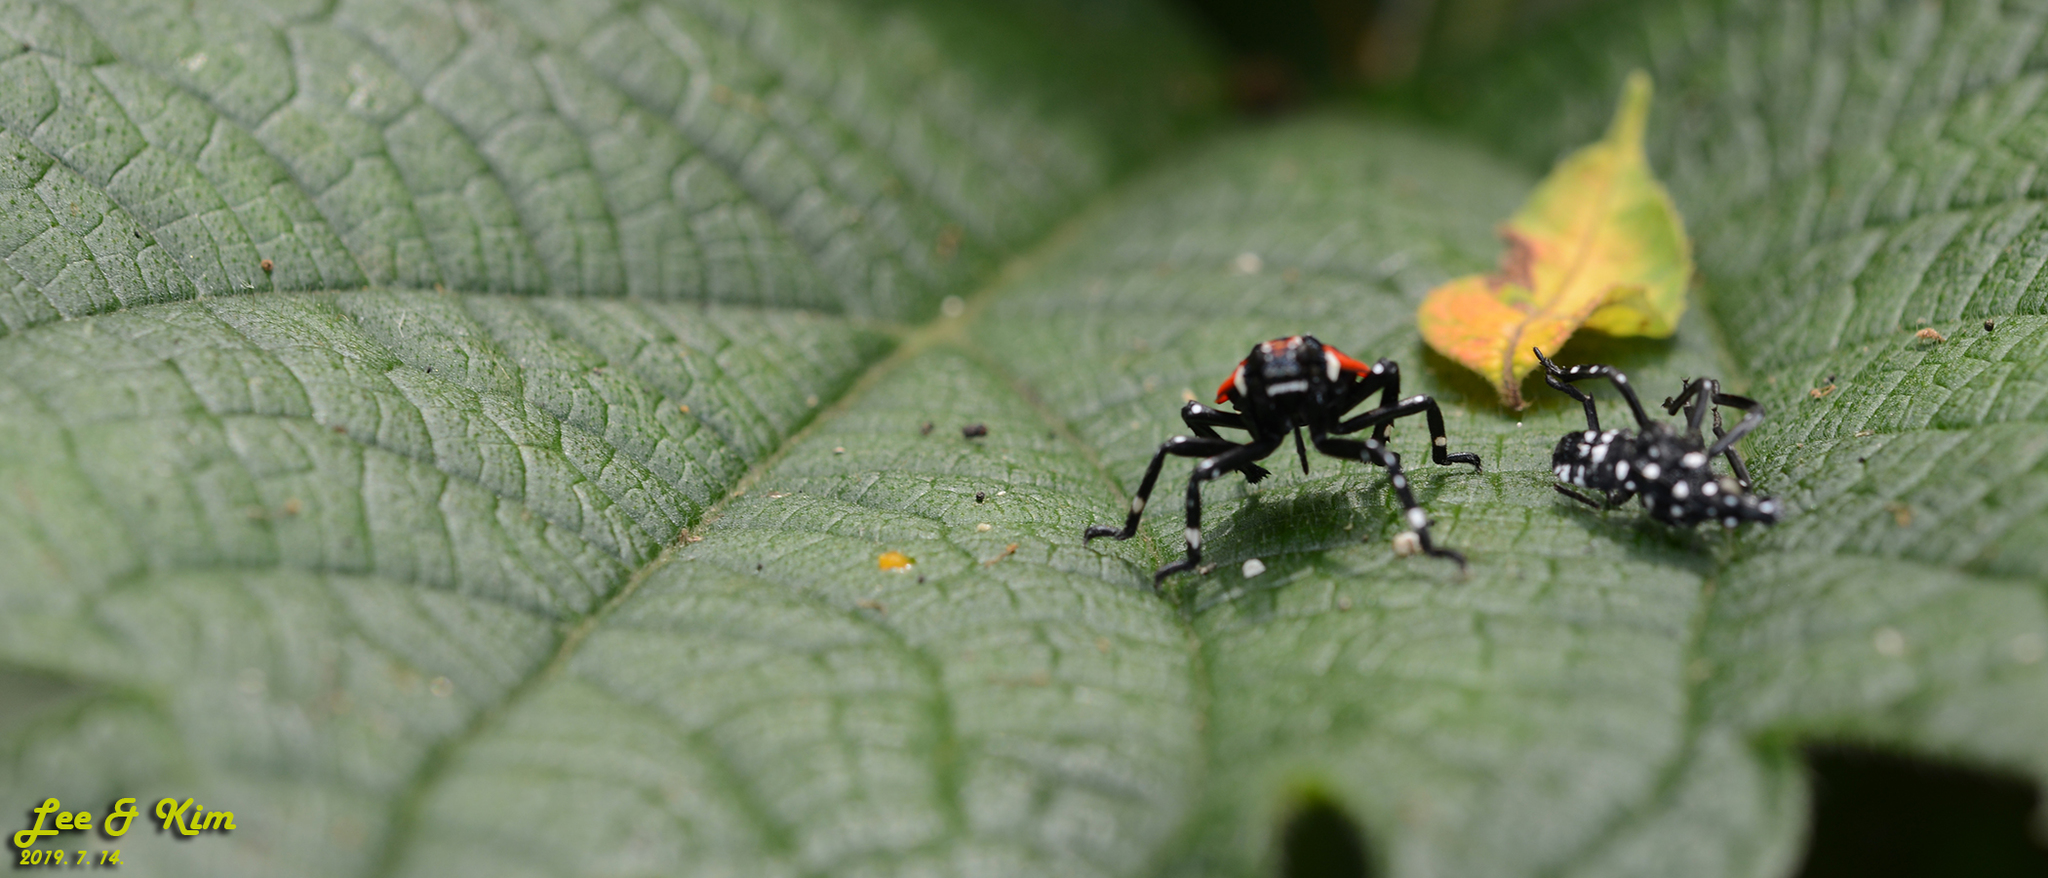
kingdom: Animalia
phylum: Arthropoda
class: Insecta
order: Hemiptera
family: Fulgoridae
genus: Lycorma
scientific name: Lycorma delicatula
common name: Spotted lanternfly
